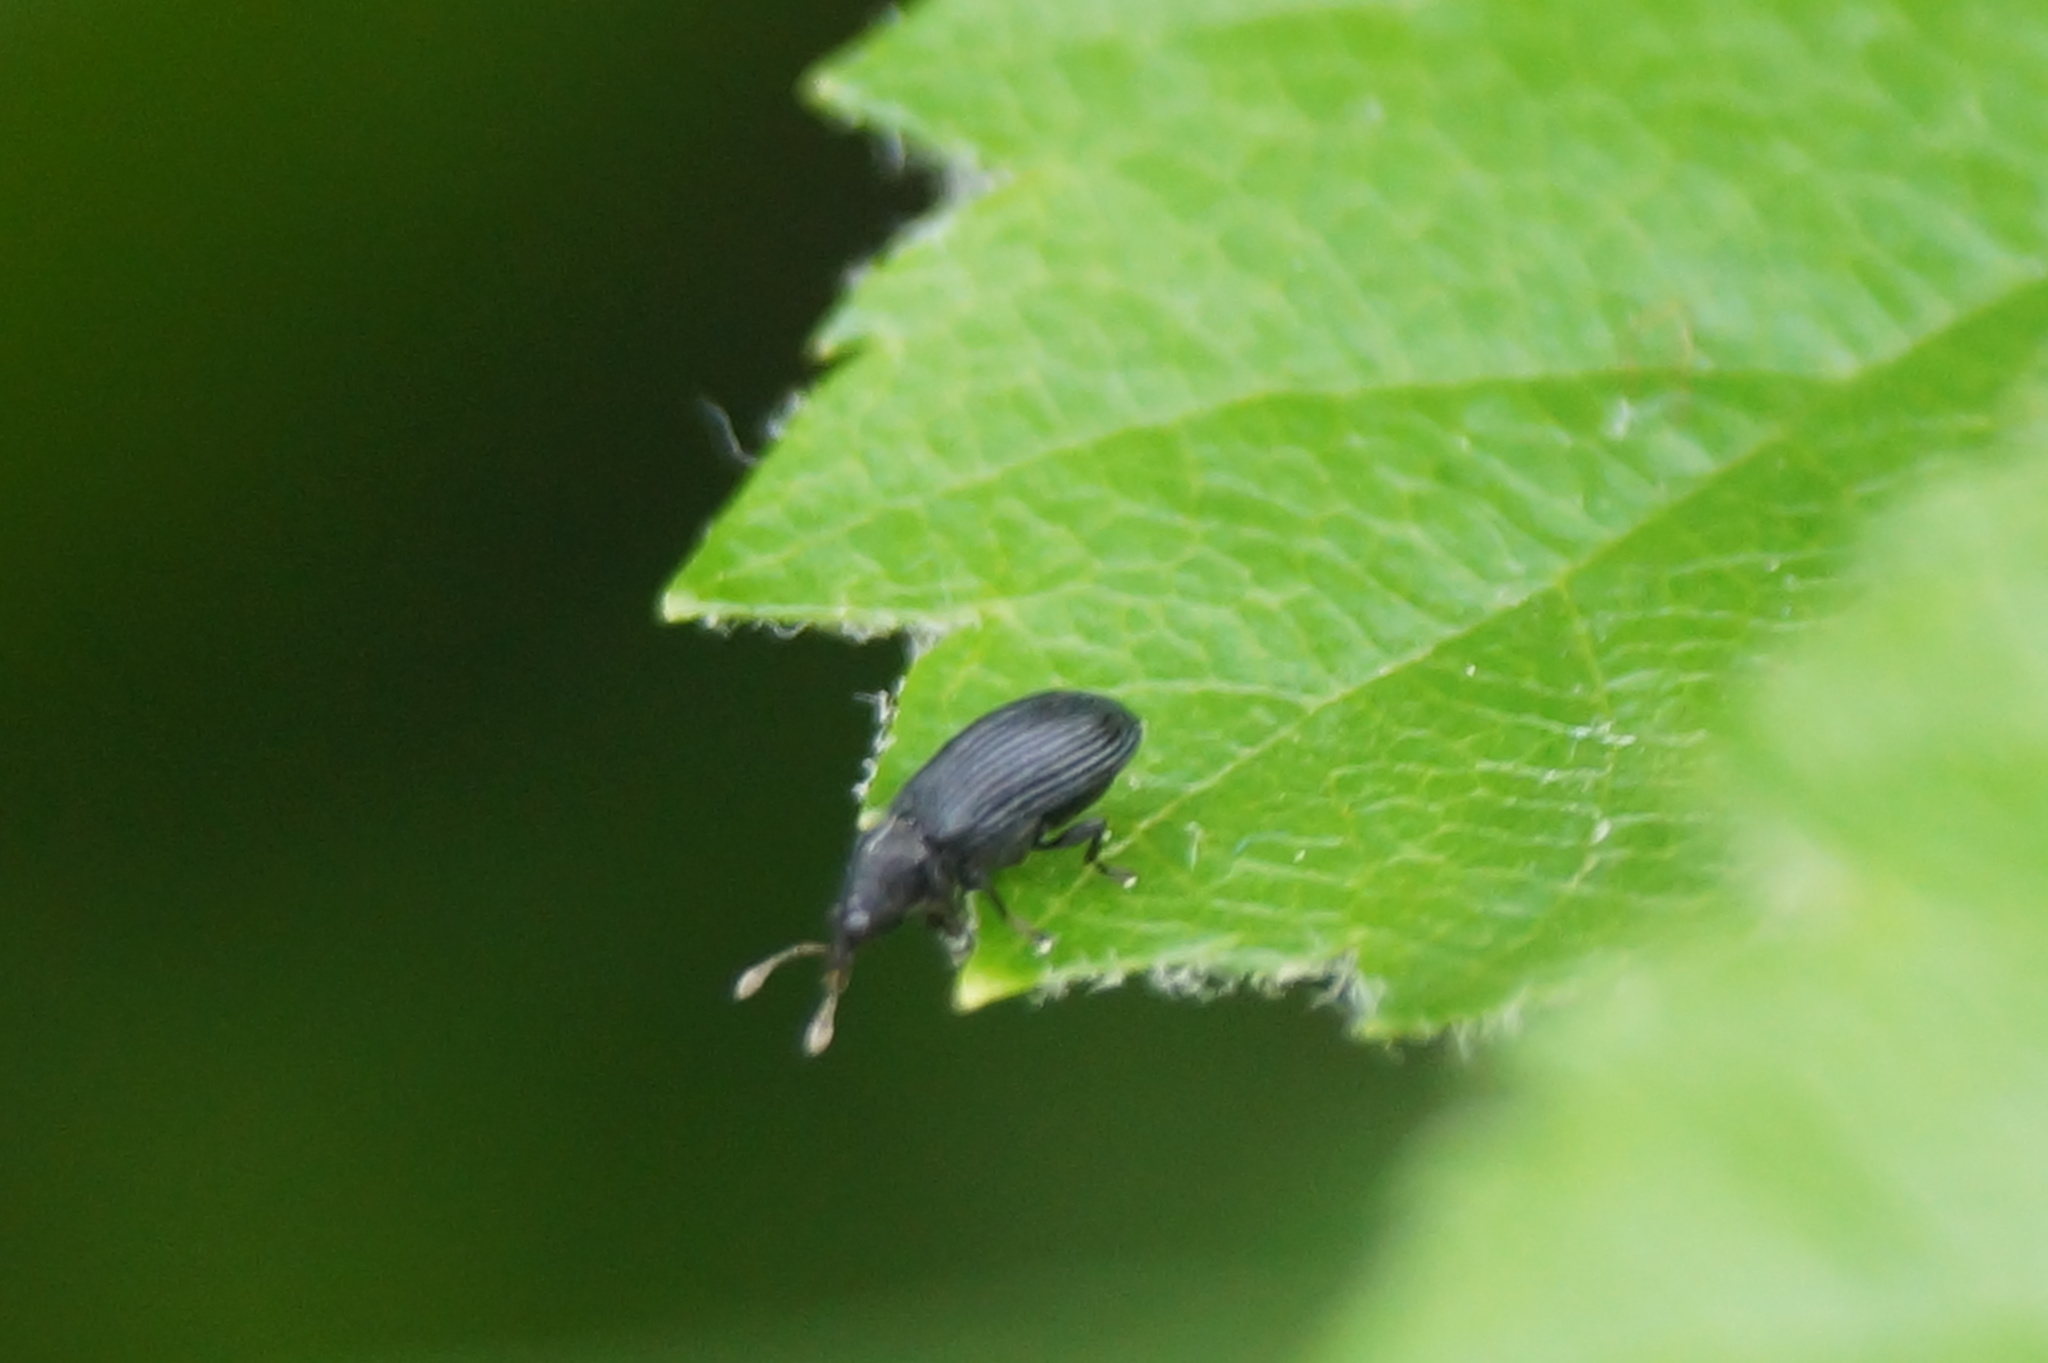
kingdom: Animalia
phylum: Arthropoda
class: Insecta
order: Coleoptera
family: Curculionidae
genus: Magdalis
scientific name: Magdalis ruficornis
